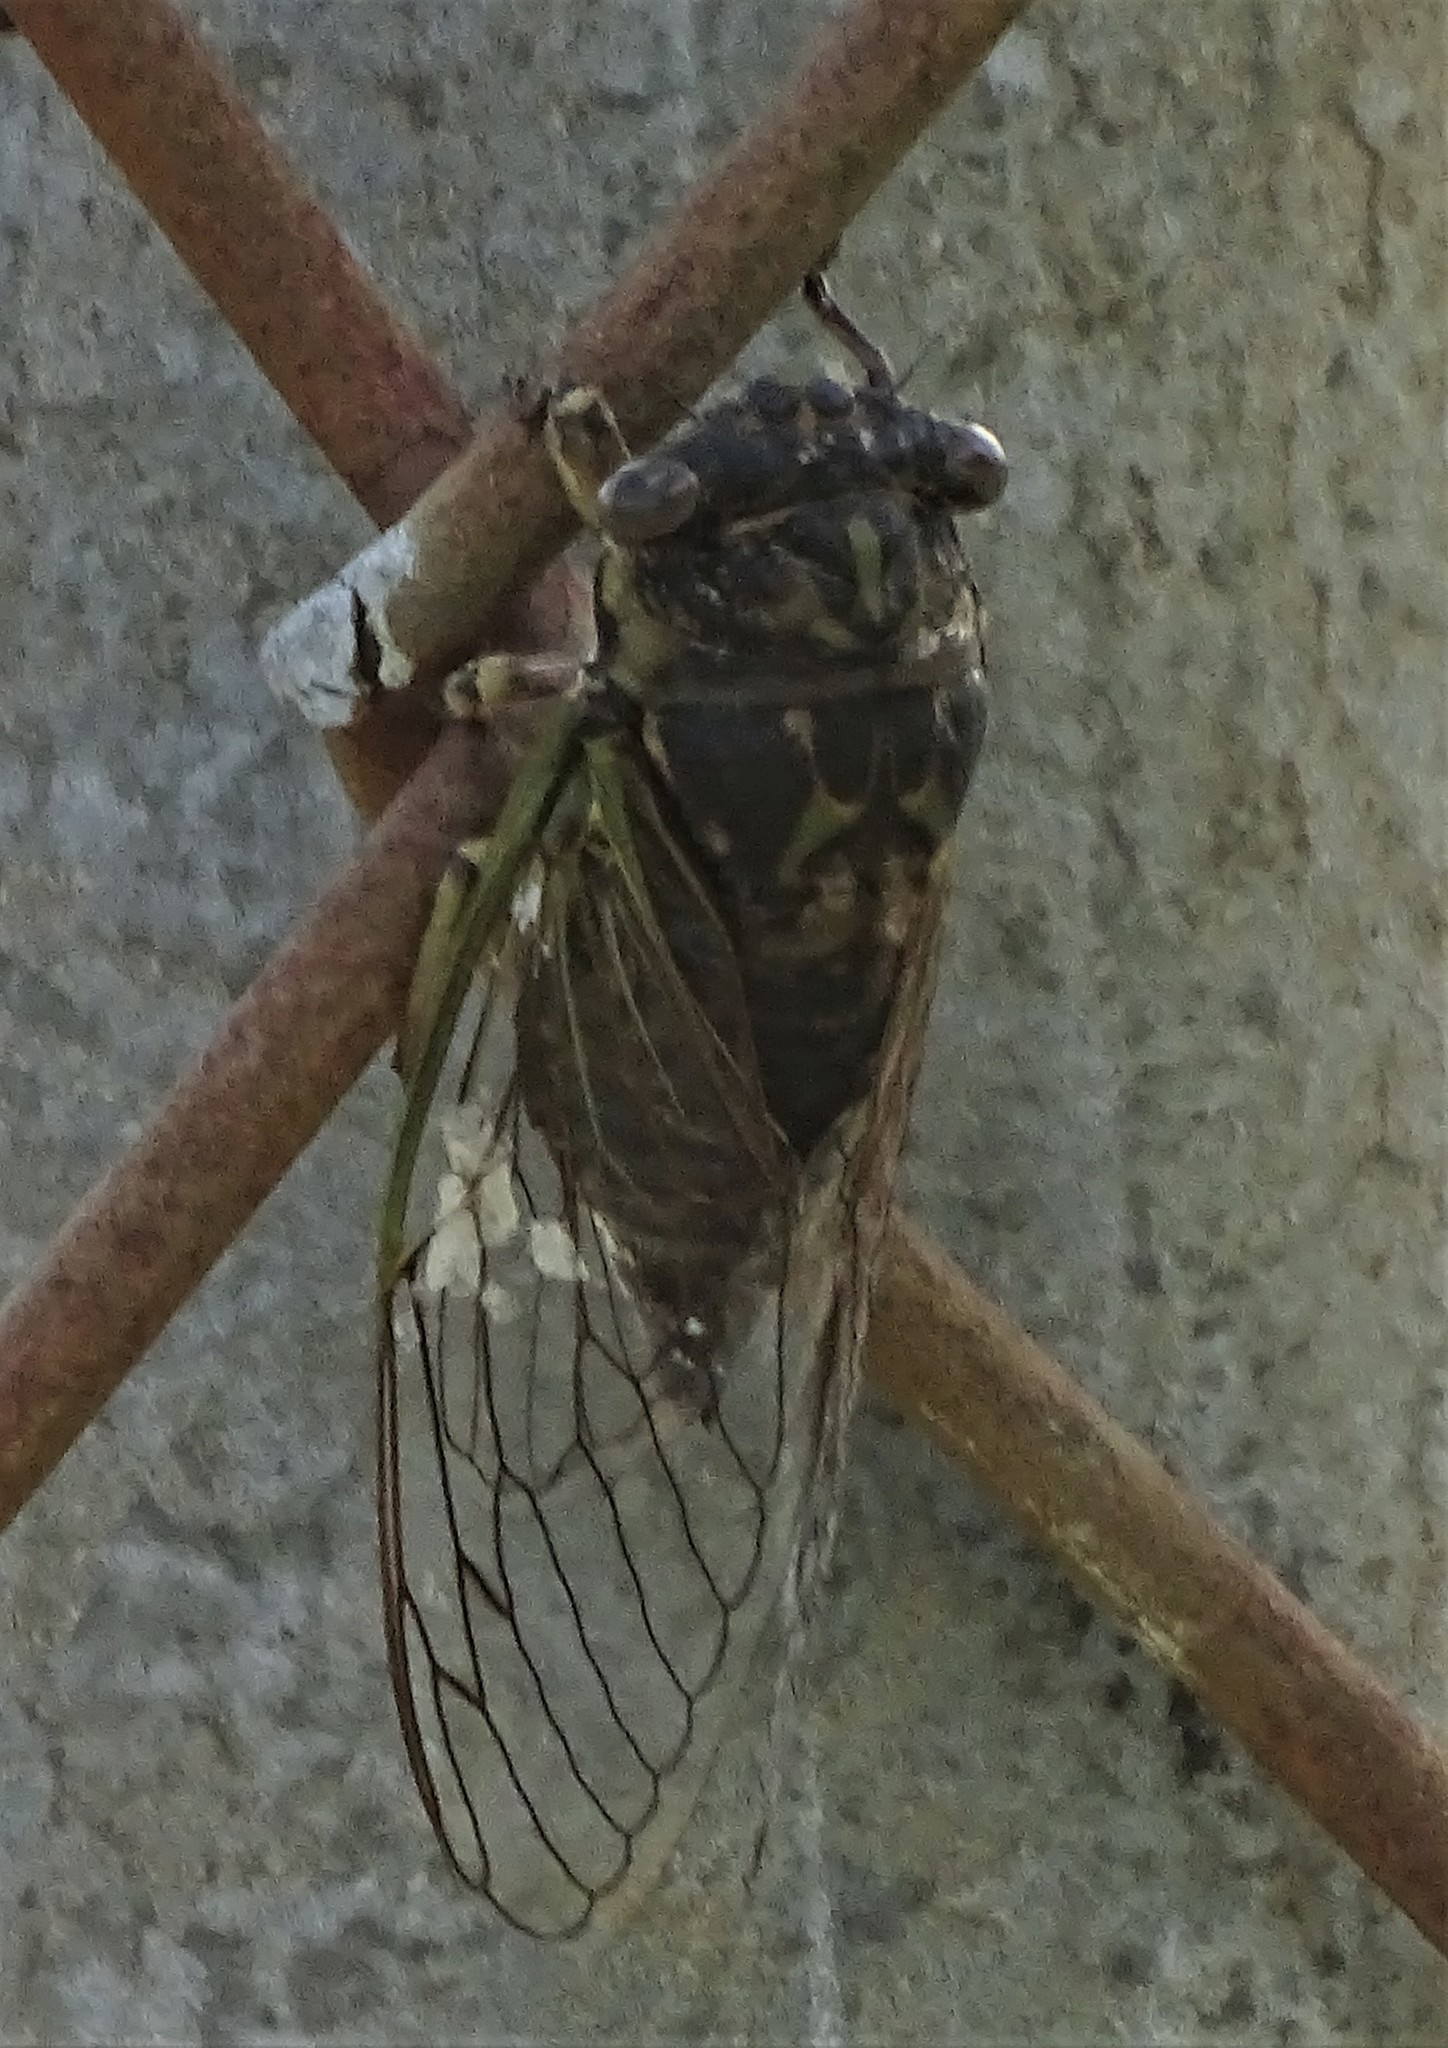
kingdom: Animalia
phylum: Arthropoda
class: Insecta
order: Hemiptera
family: Cicadidae
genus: Neotibicen
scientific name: Neotibicen canicularis
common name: God-day cicada
